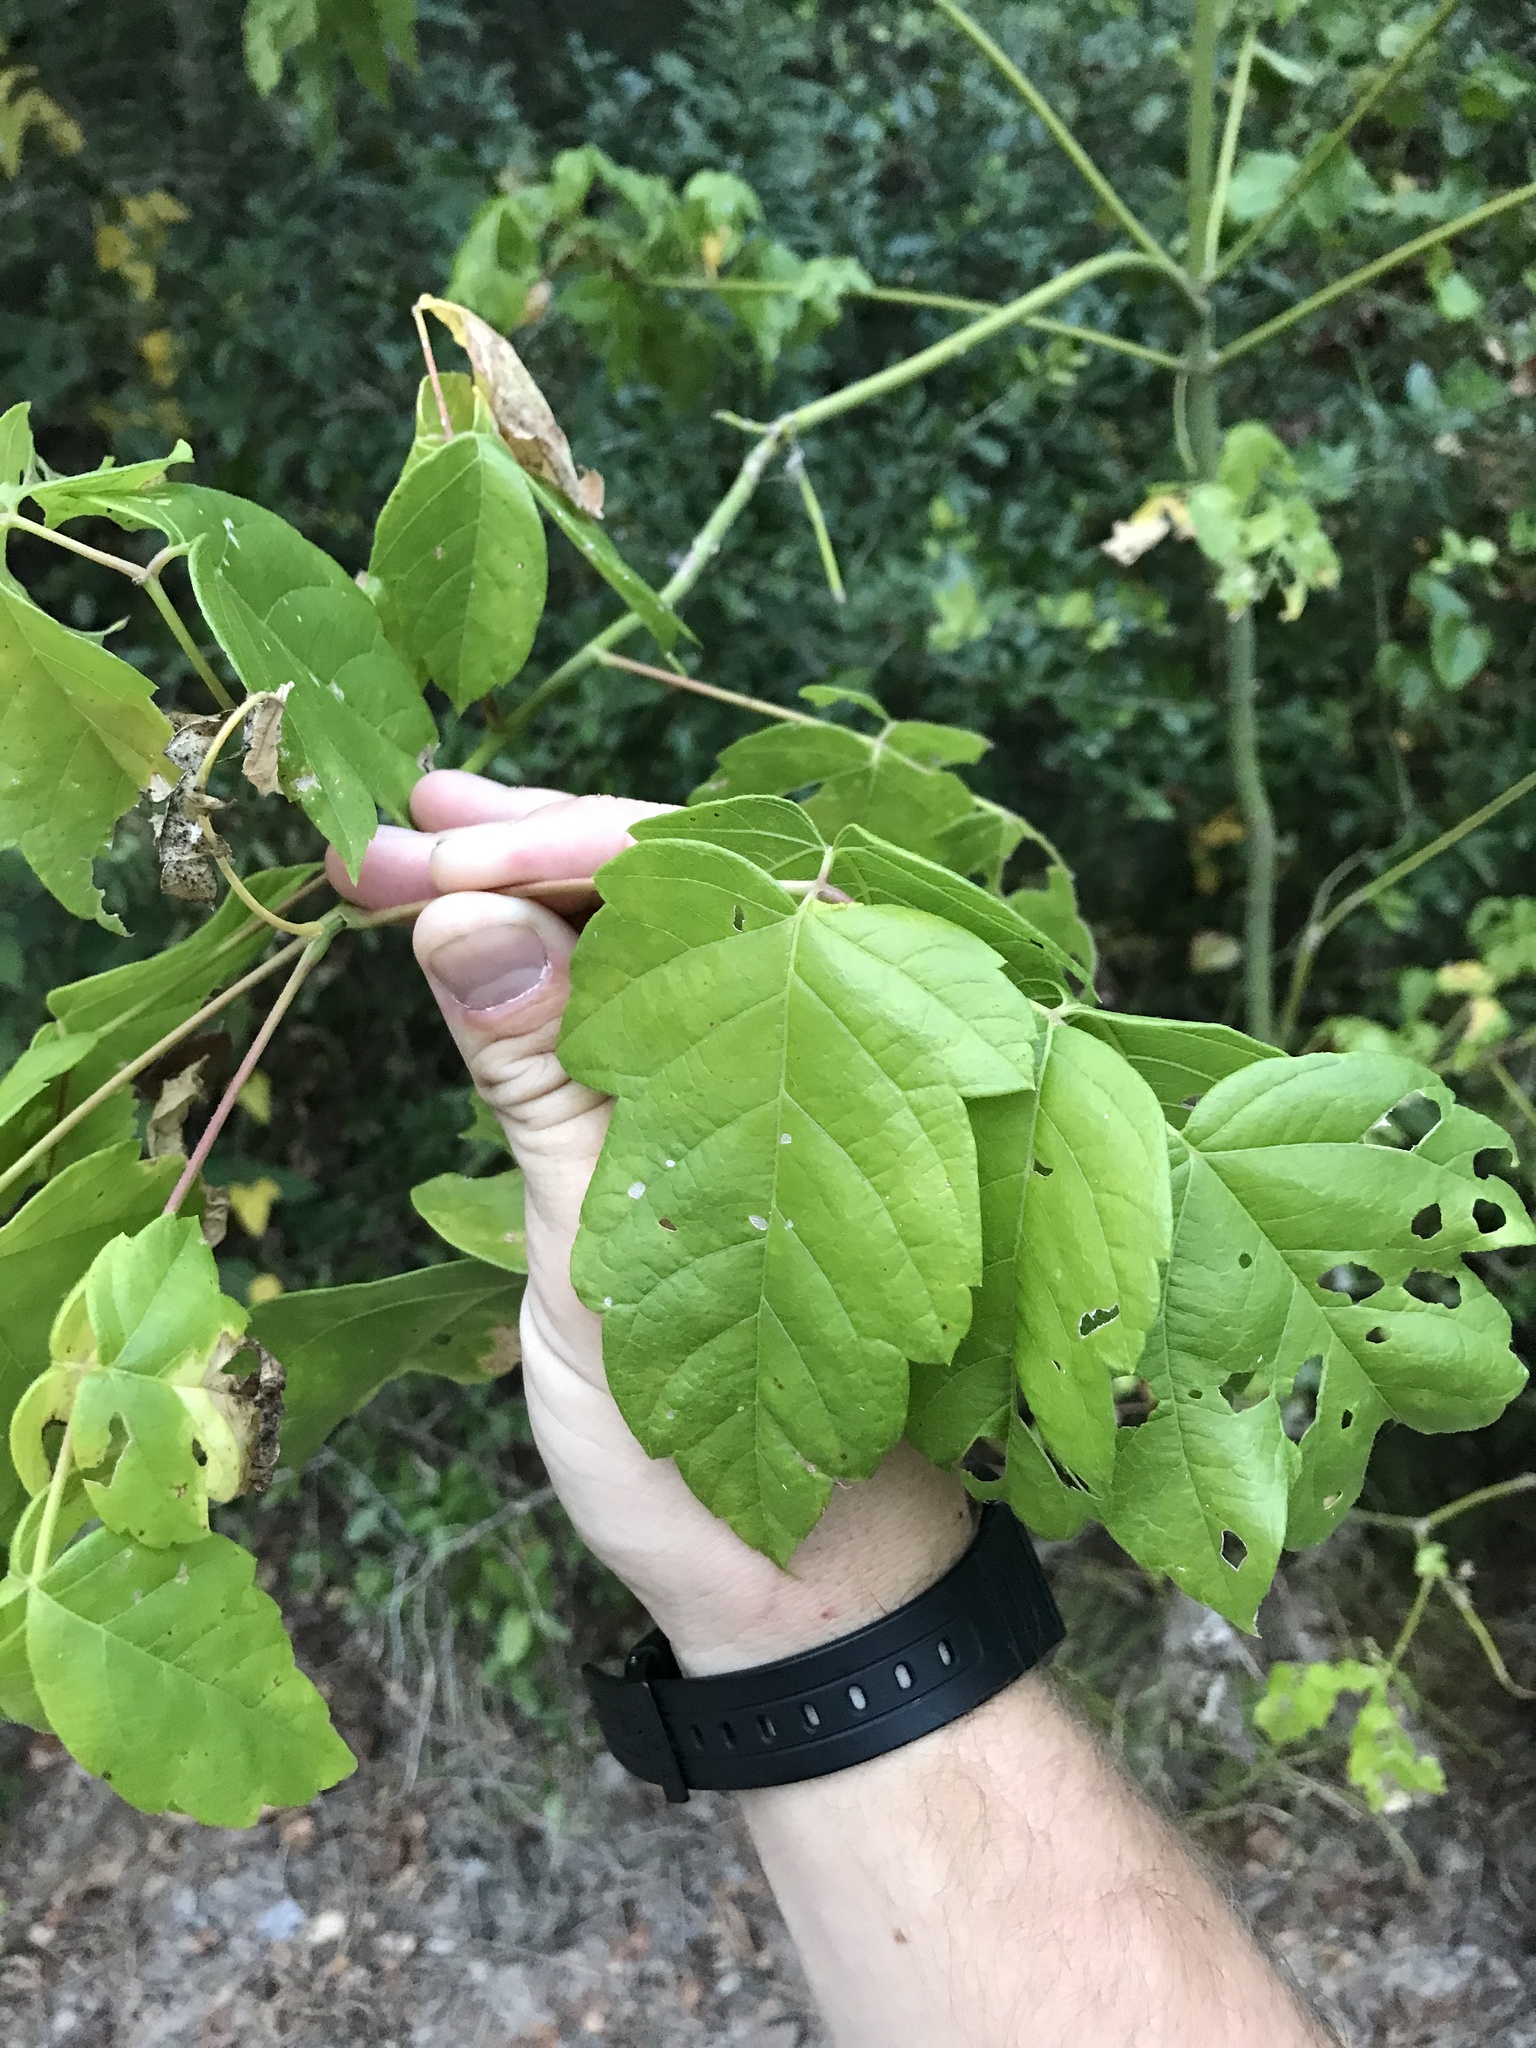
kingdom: Plantae
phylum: Tracheophyta
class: Magnoliopsida
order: Sapindales
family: Sapindaceae
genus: Acer
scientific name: Acer negundo
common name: Ashleaf maple
